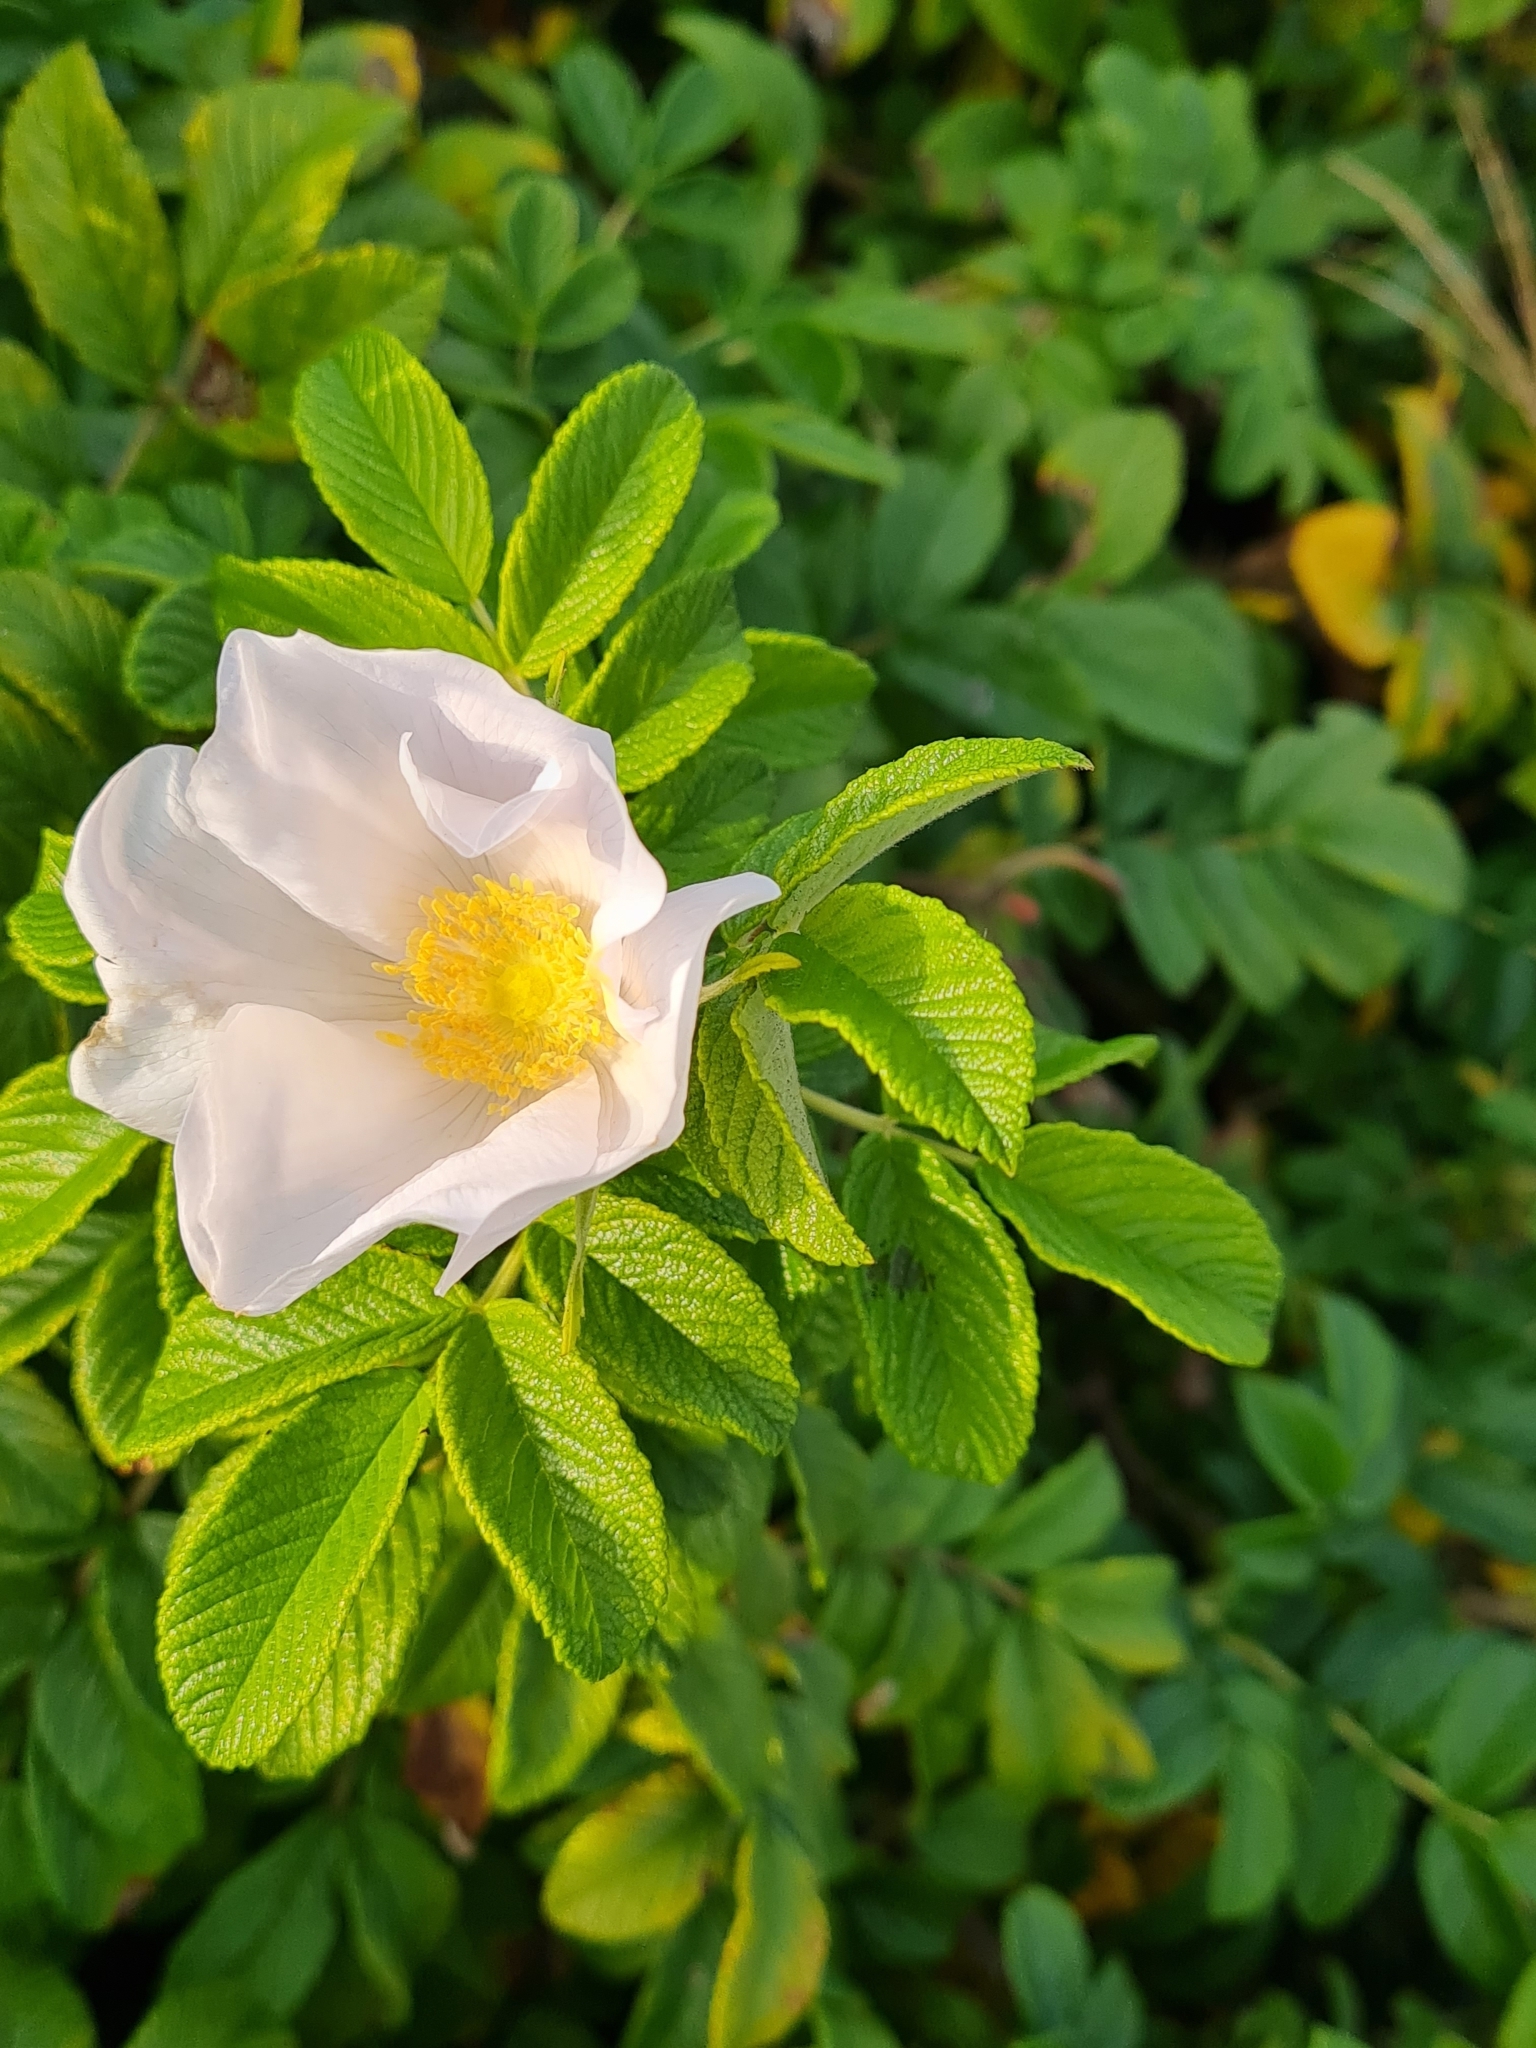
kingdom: Plantae
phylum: Tracheophyta
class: Magnoliopsida
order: Rosales
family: Rosaceae
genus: Rosa
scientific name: Rosa rugosa
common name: Japanese rose
